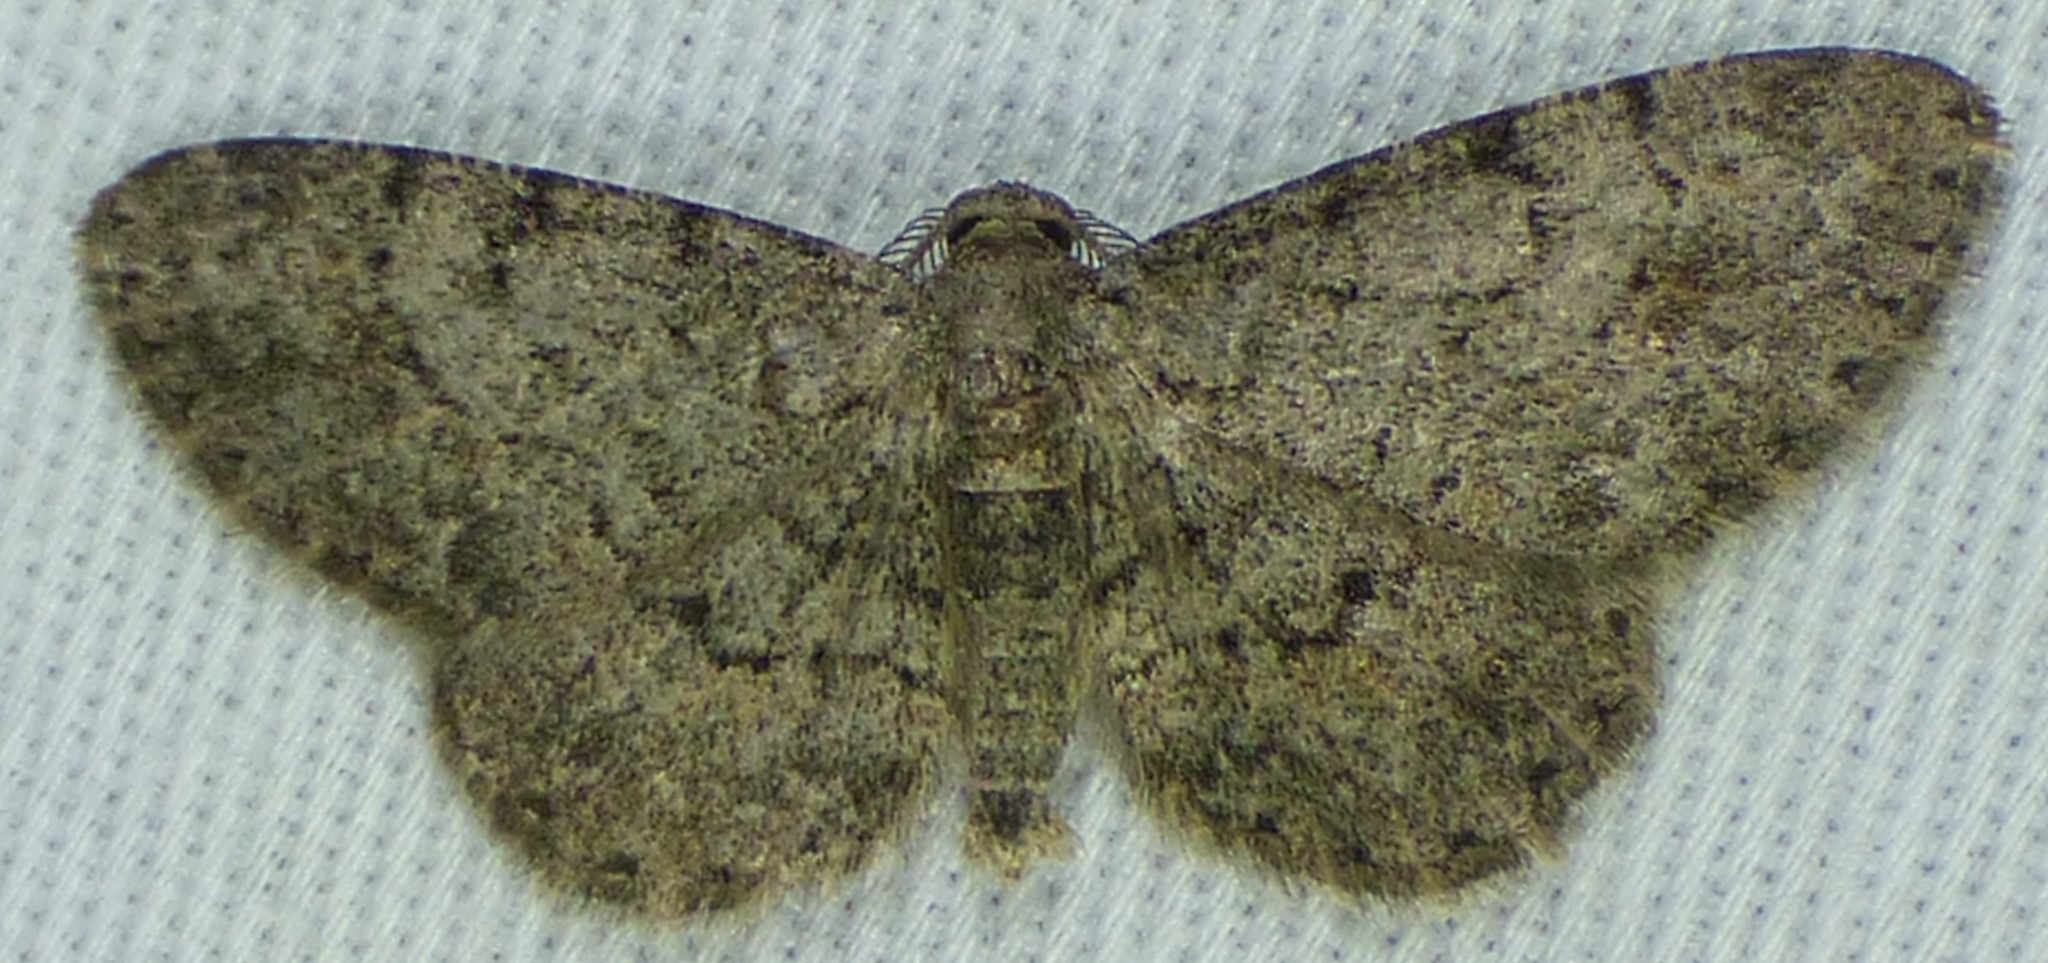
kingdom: Animalia
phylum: Arthropoda
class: Insecta
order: Lepidoptera
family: Geometridae
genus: Protoboarmia
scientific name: Protoboarmia porcelaria
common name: Porcelain gray
